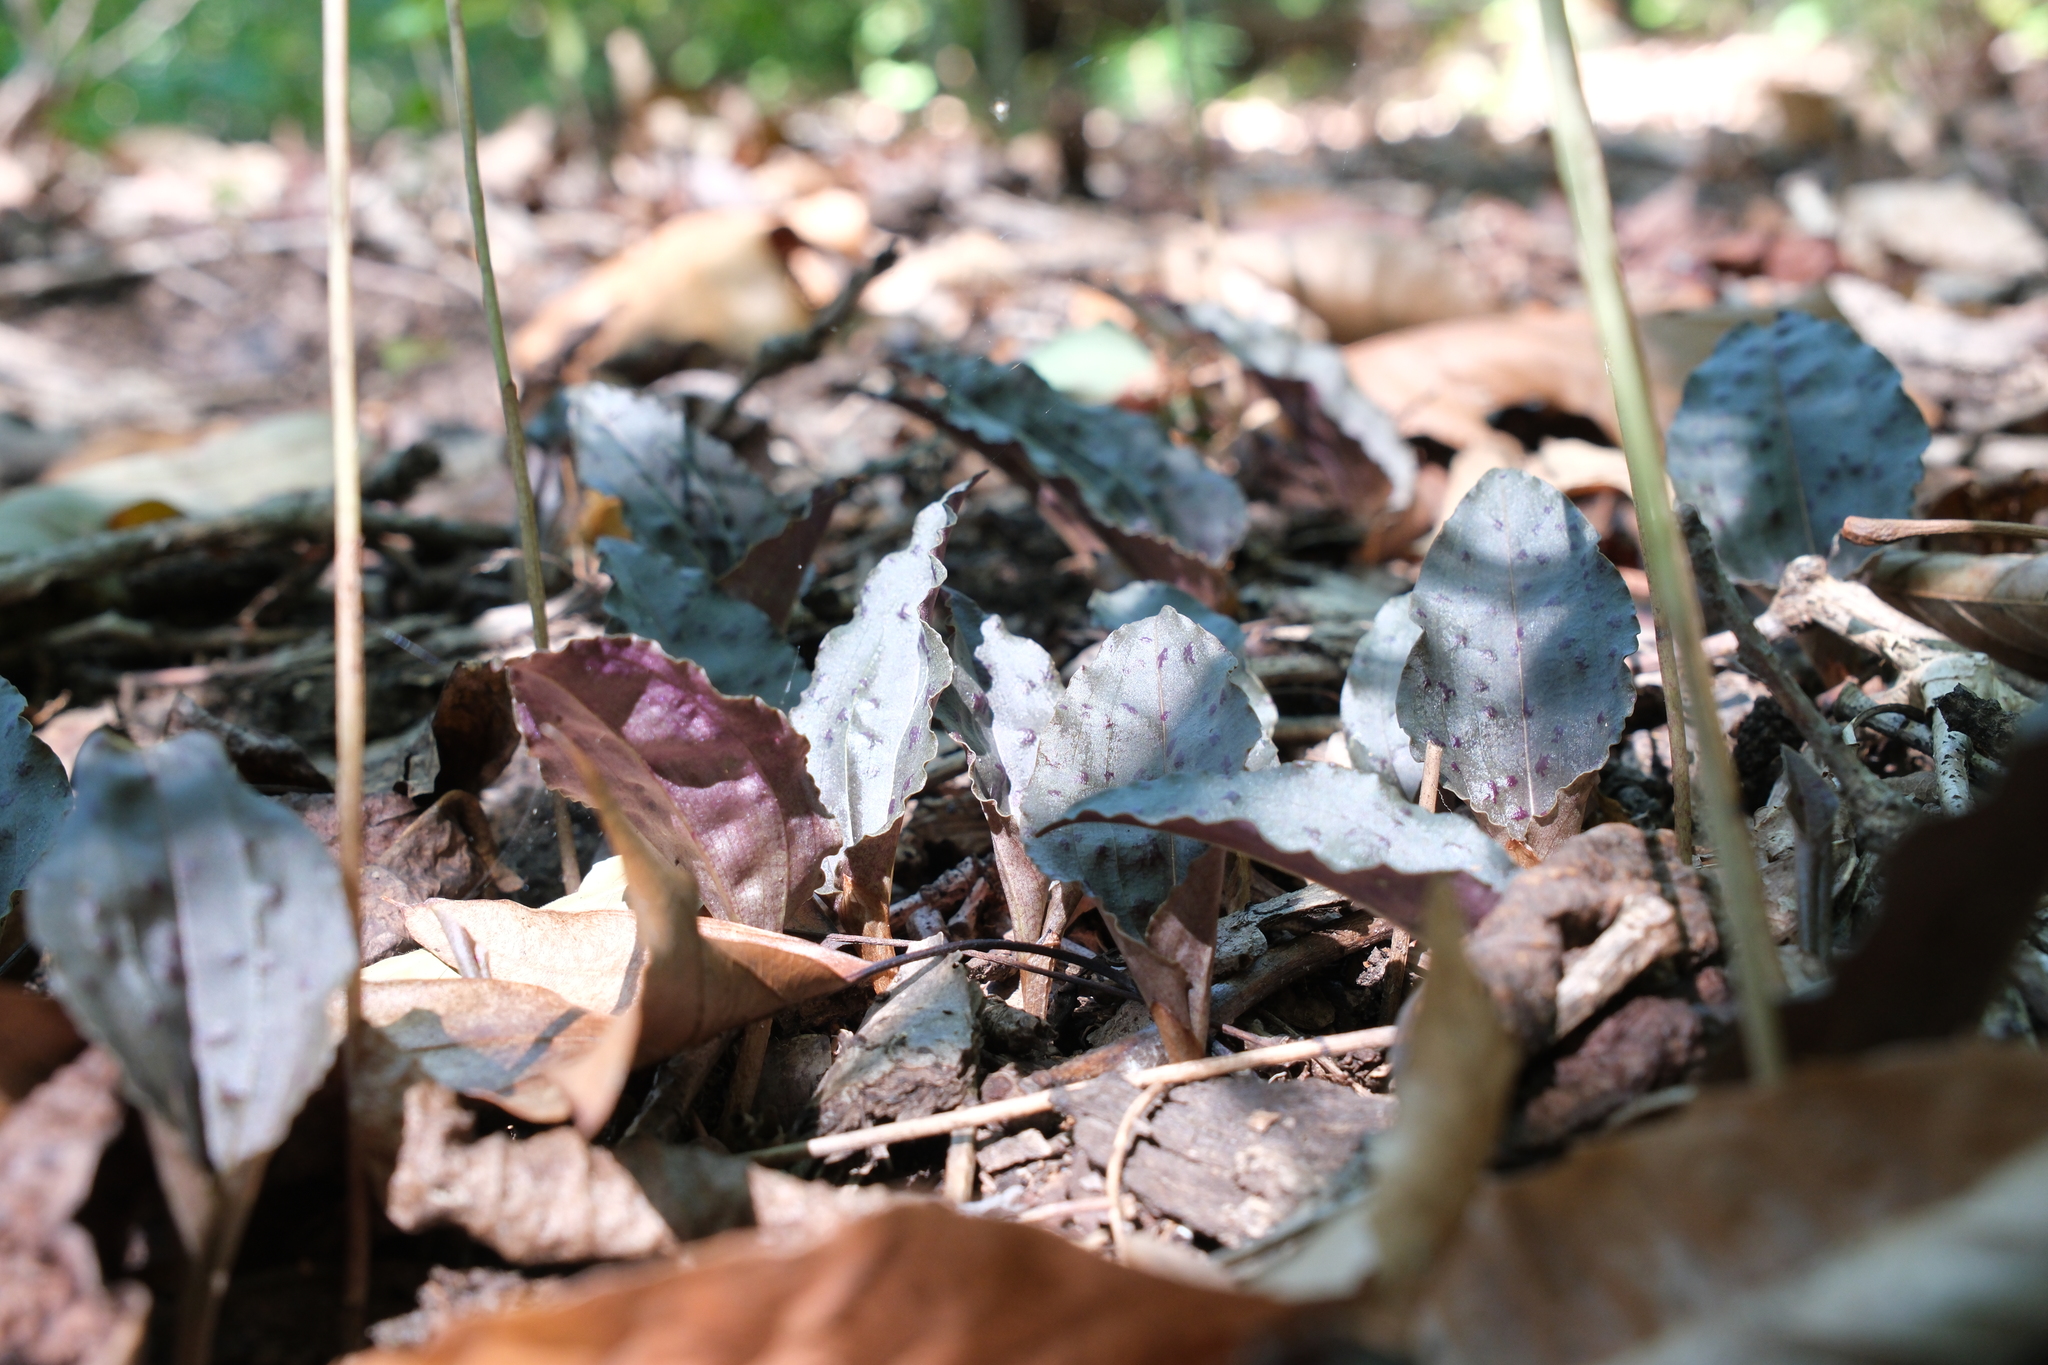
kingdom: Plantae
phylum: Tracheophyta
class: Liliopsida
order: Asparagales
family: Orchidaceae
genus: Tipularia
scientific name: Tipularia discolor
